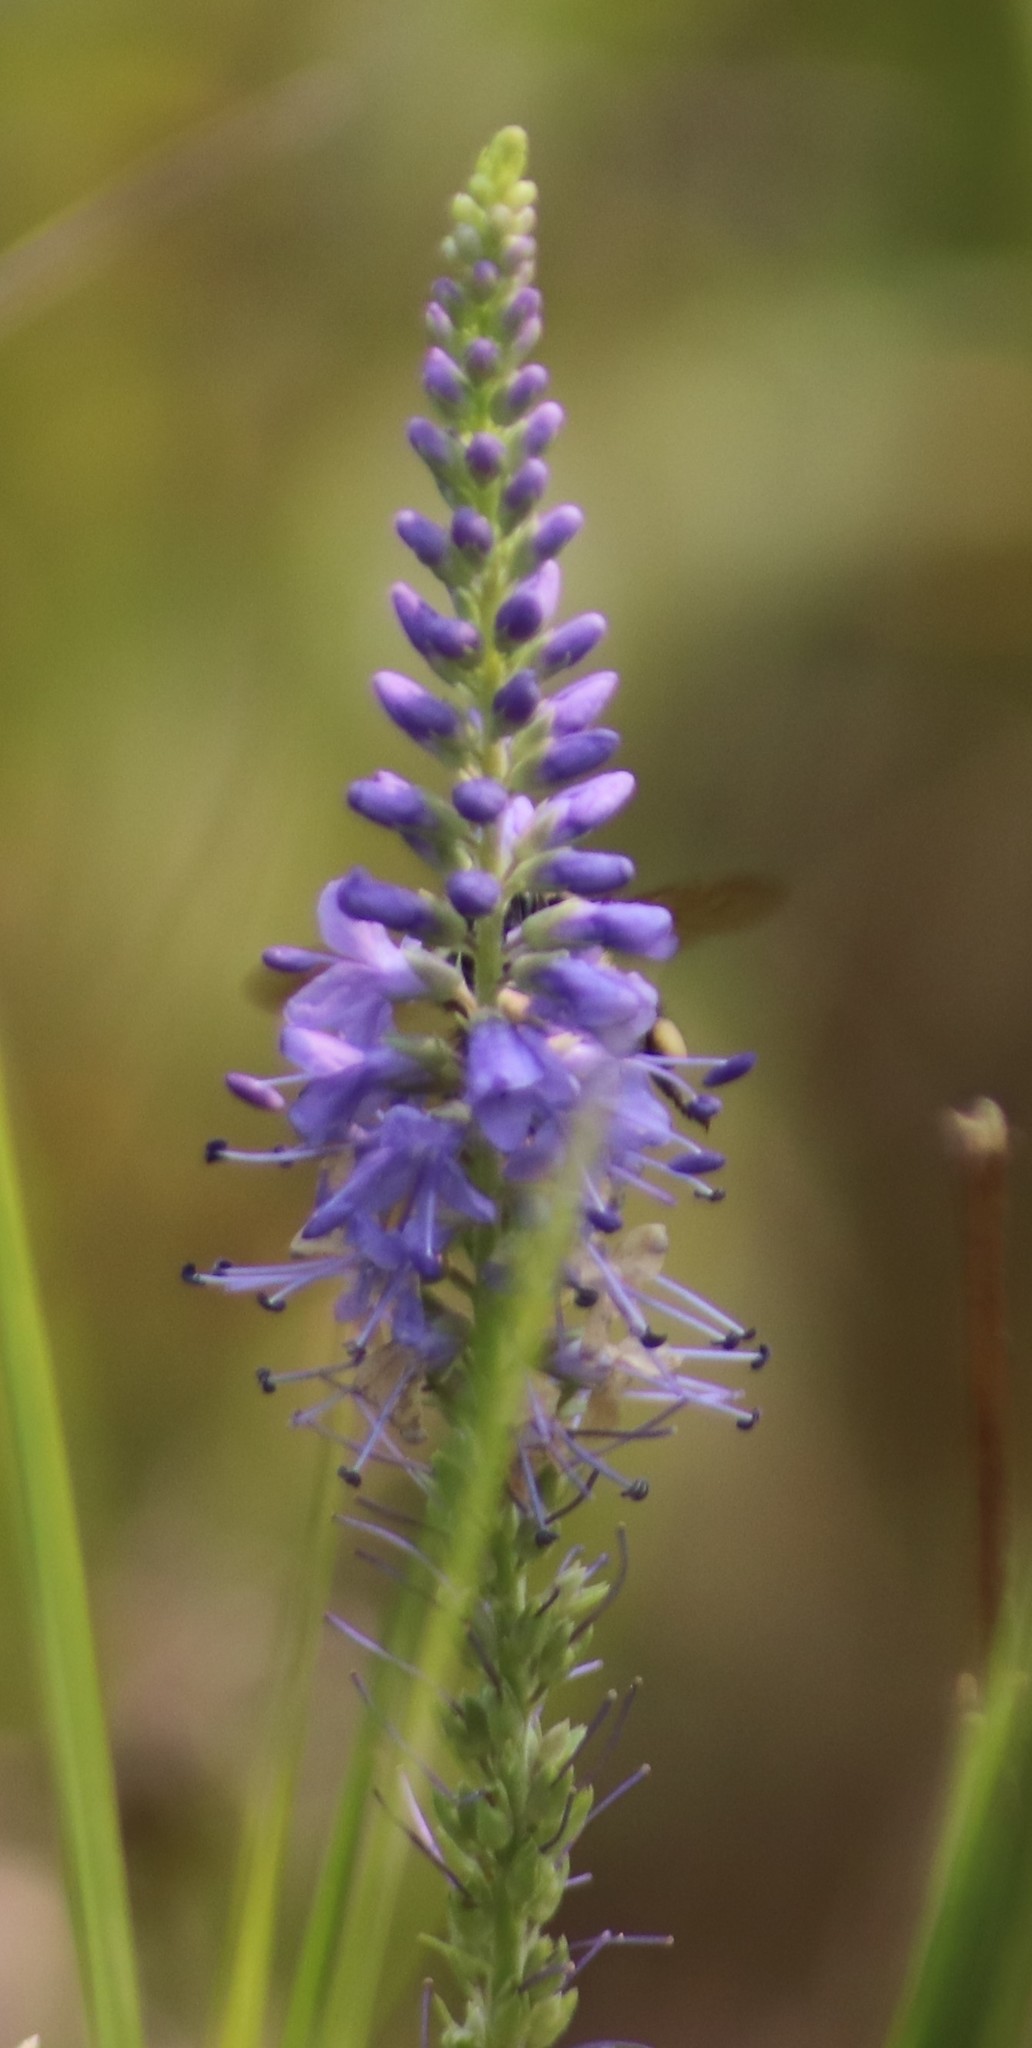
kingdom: Plantae
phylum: Tracheophyta
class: Magnoliopsida
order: Lamiales
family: Plantaginaceae
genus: Veronica
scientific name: Veronica longifolia
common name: Garden speedwell
